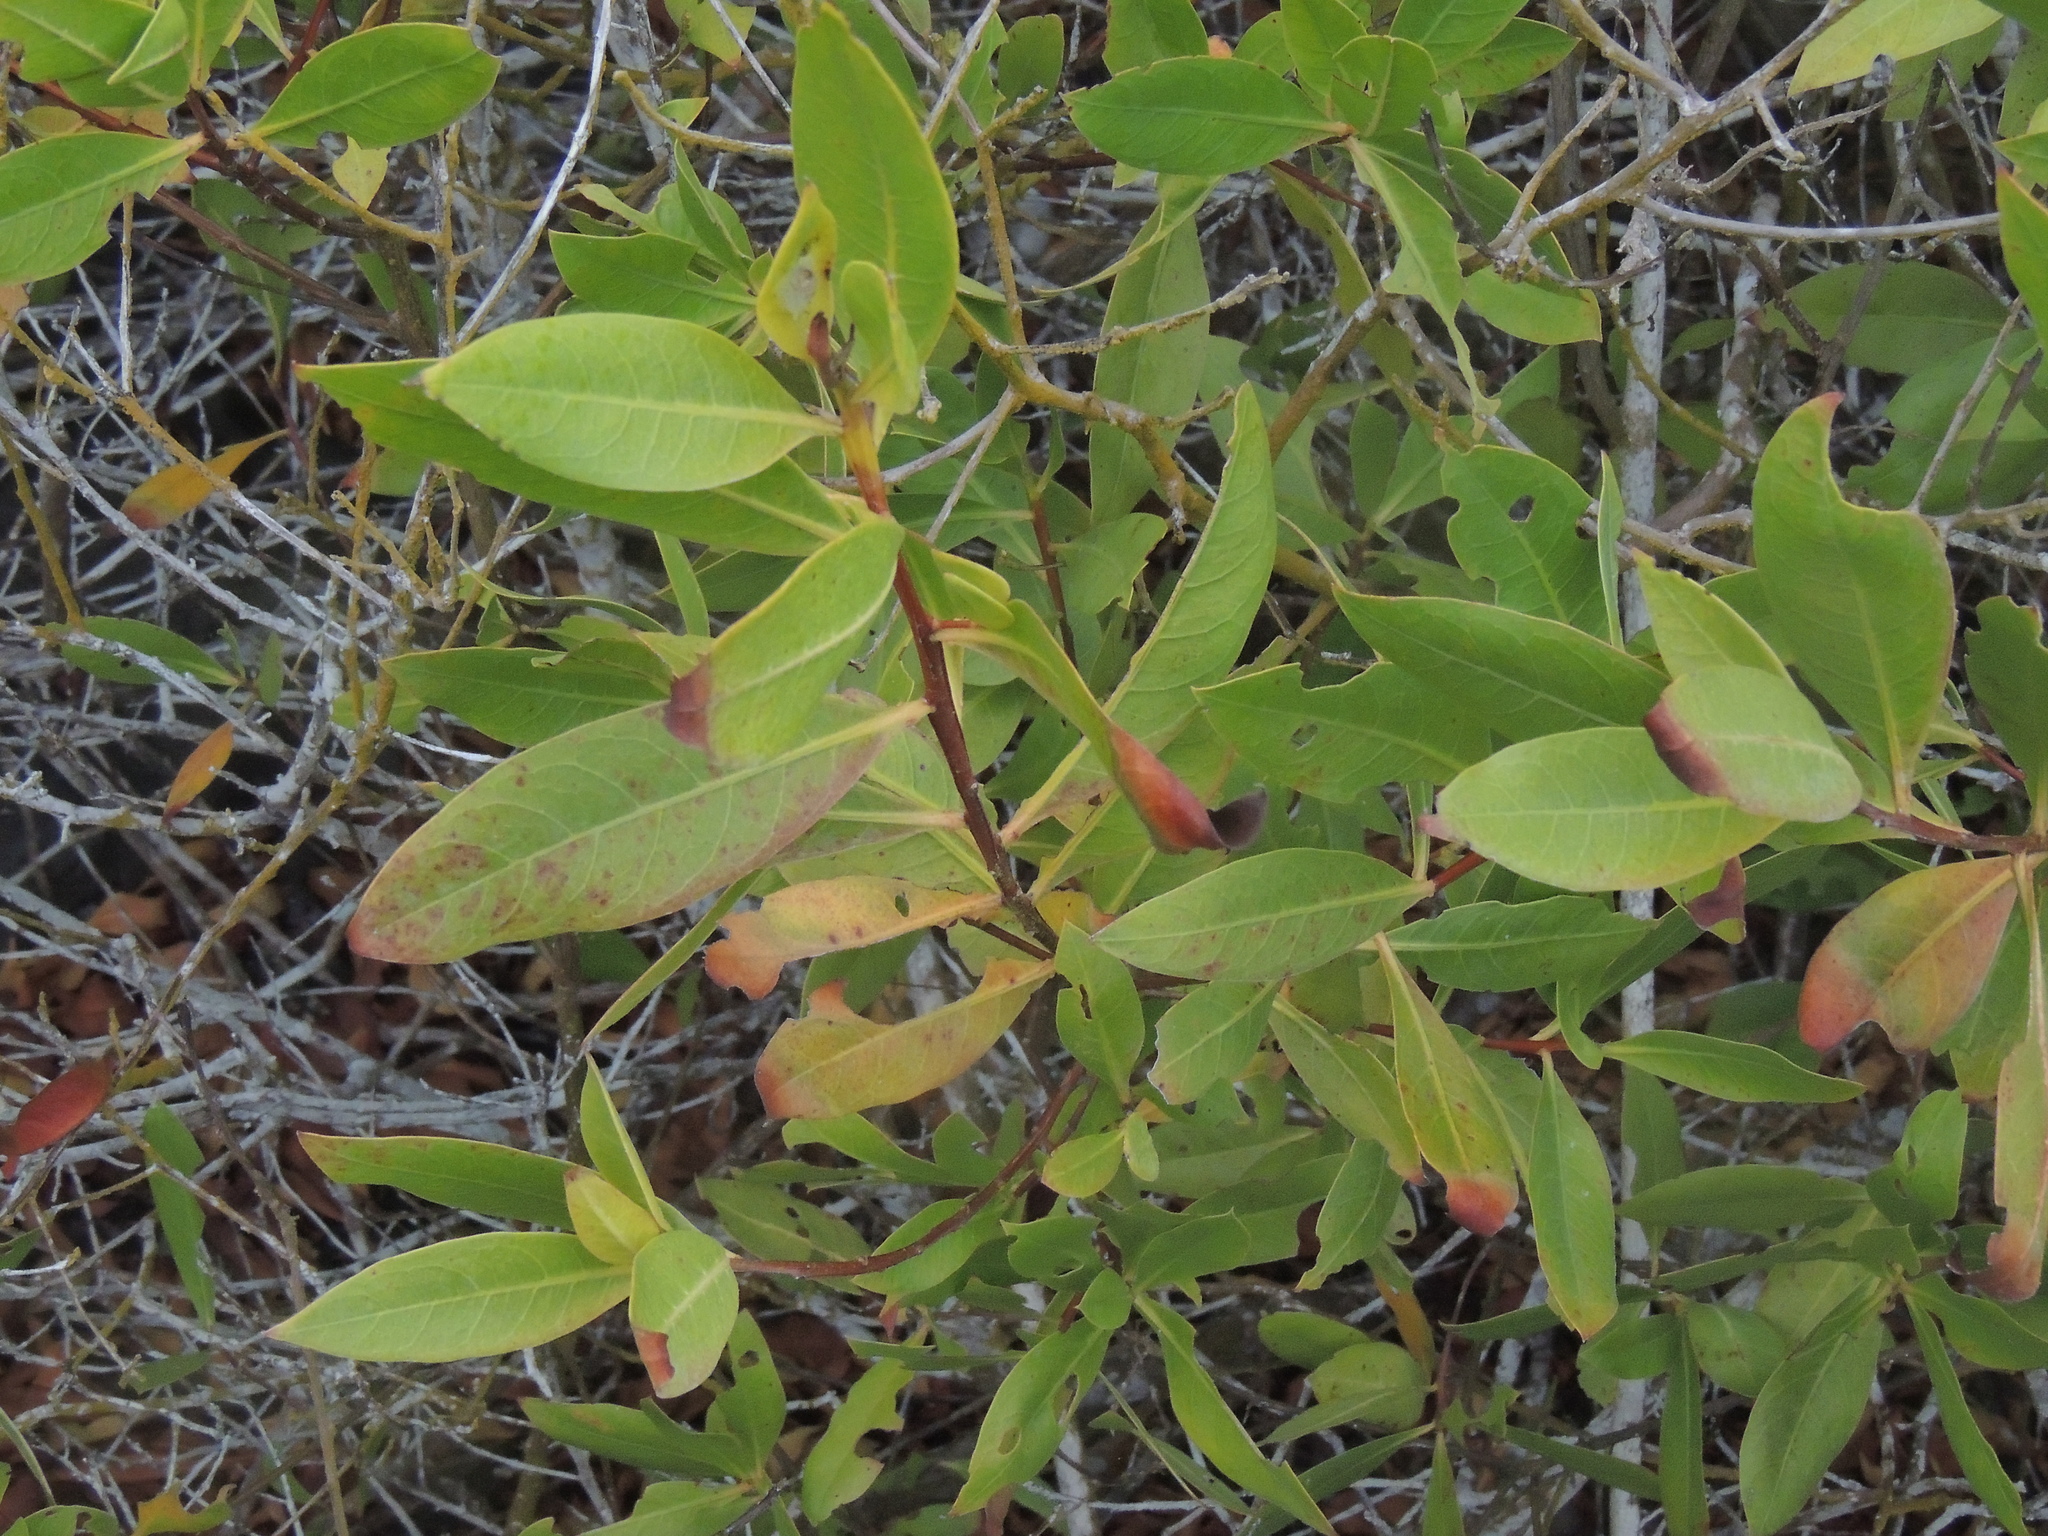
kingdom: Plantae
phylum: Tracheophyta
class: Magnoliopsida
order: Myrtales
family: Combretaceae
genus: Conocarpus
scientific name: Conocarpus erectus
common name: Button mangrove
